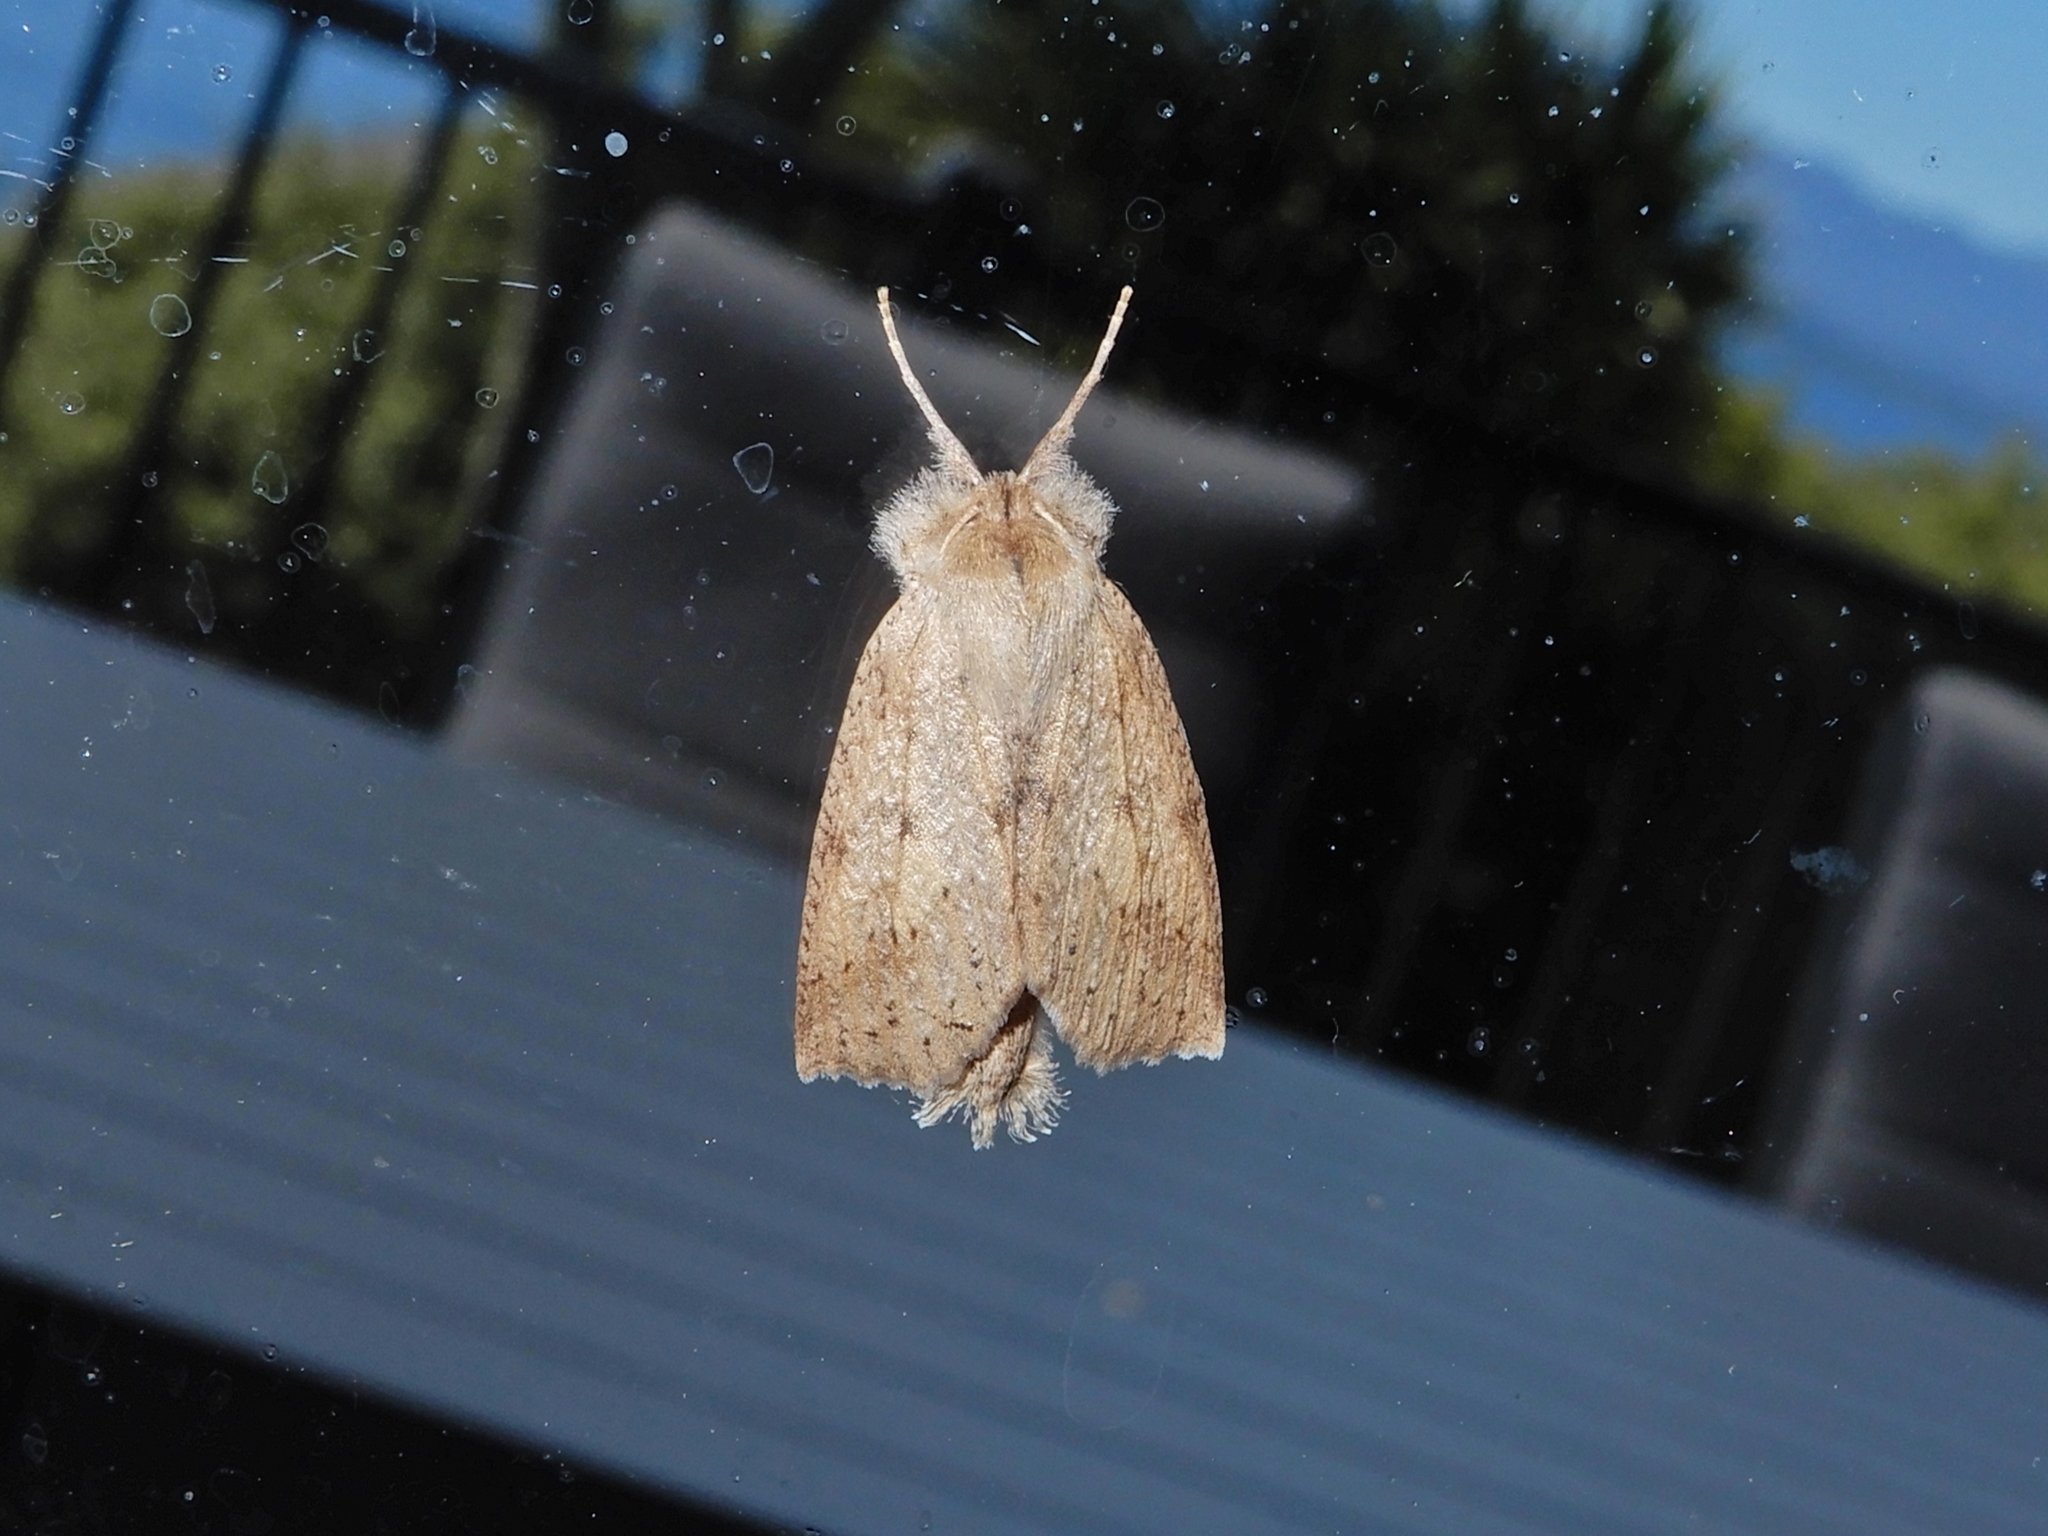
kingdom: Animalia
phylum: Arthropoda
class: Insecta
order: Lepidoptera
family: Geometridae
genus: Declana
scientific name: Declana leptomera
